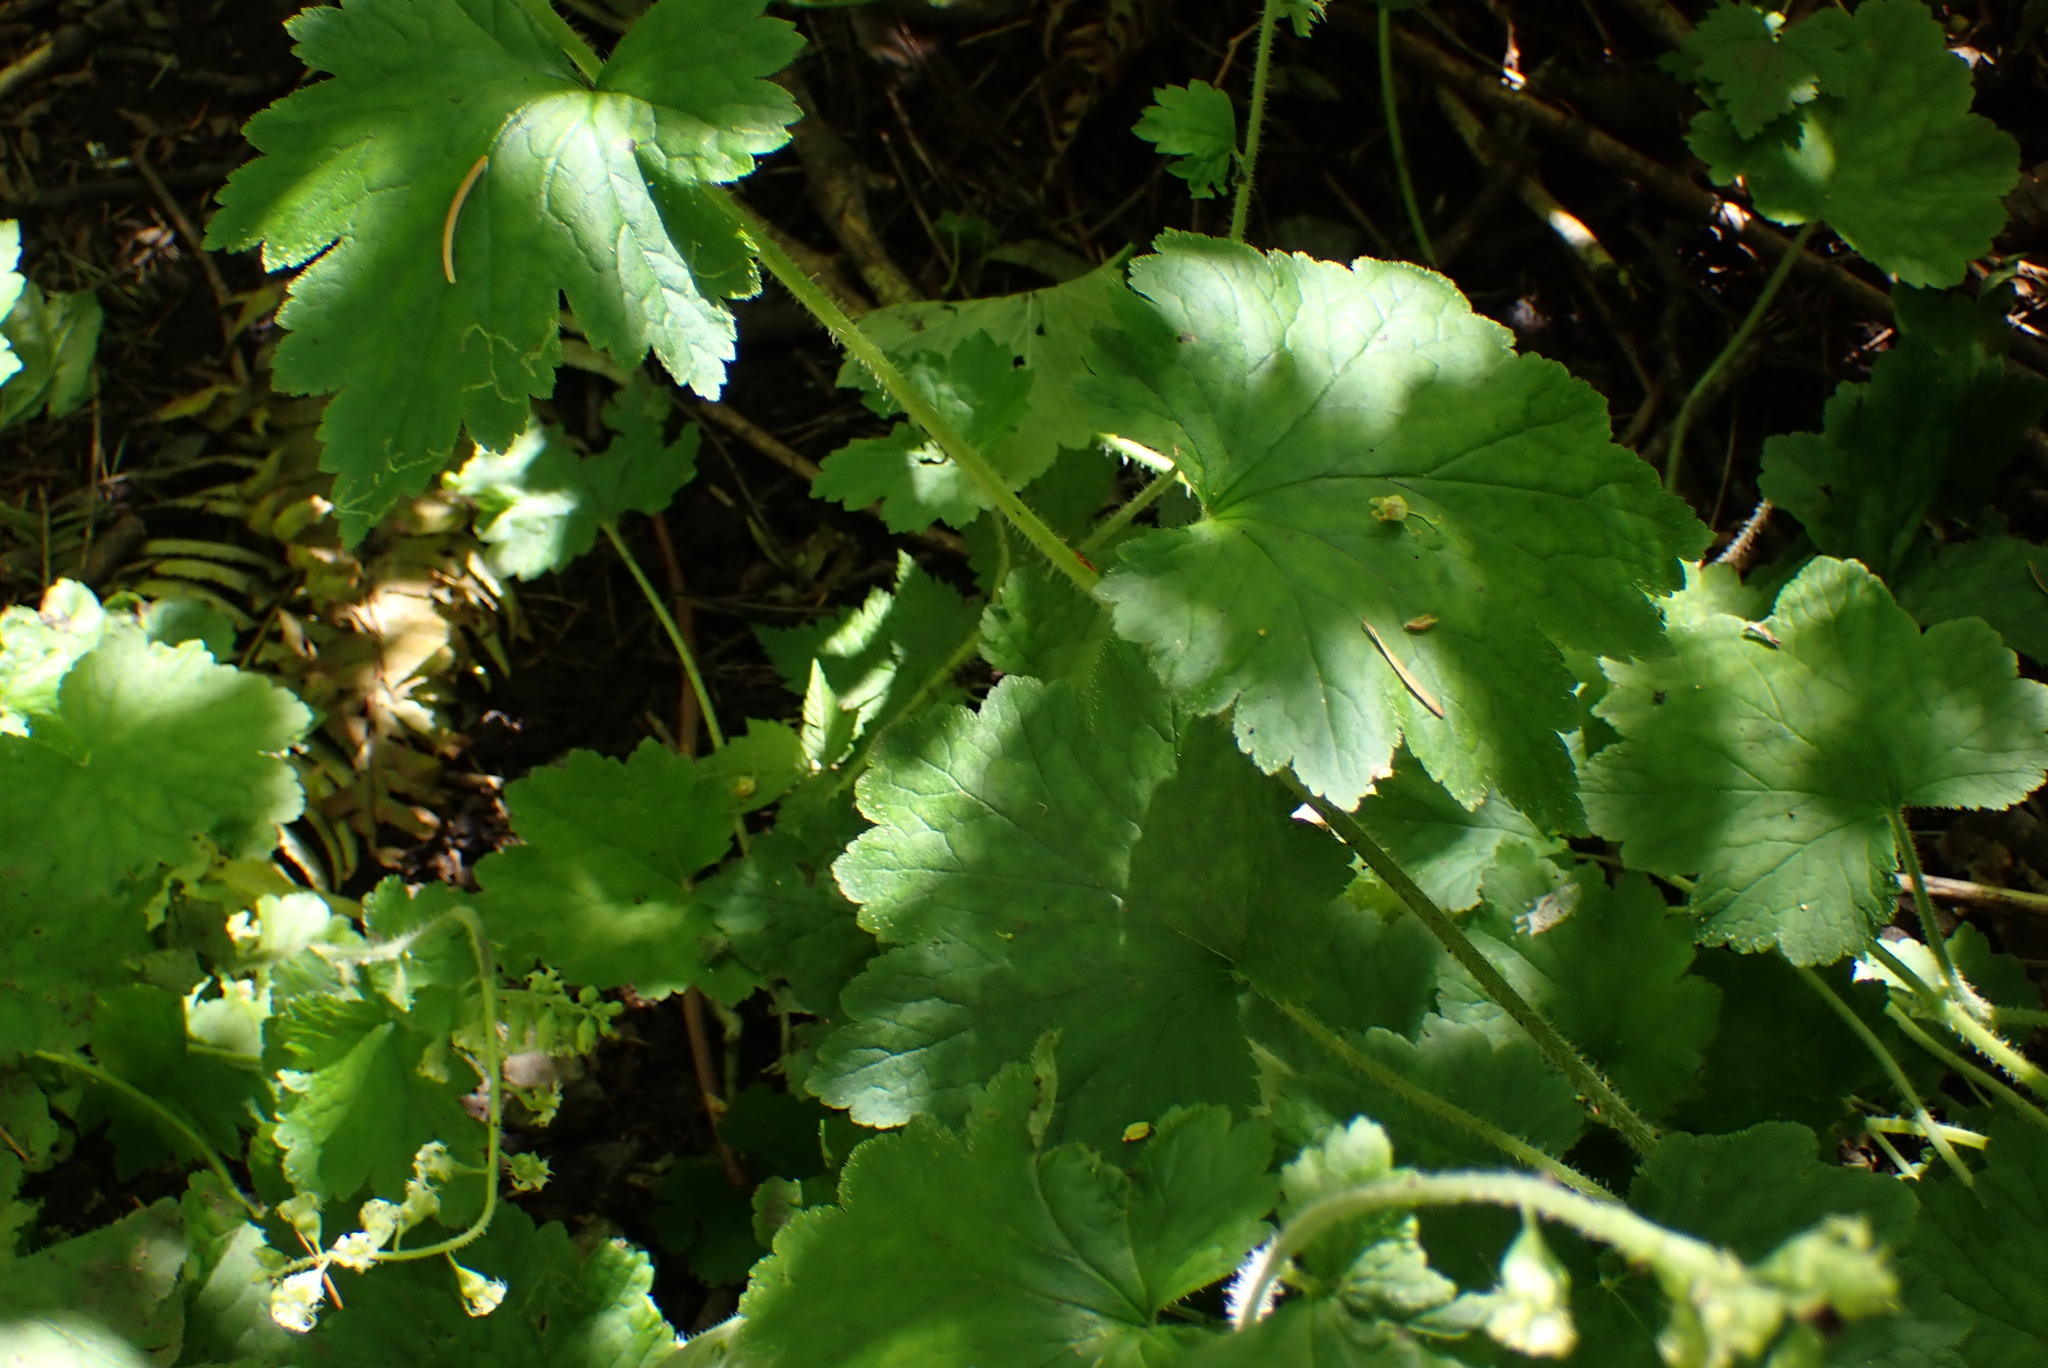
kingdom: Plantae
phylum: Tracheophyta
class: Magnoliopsida
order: Saxifragales
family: Saxifragaceae
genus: Tellima
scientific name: Tellima grandiflora
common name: Fringecups
